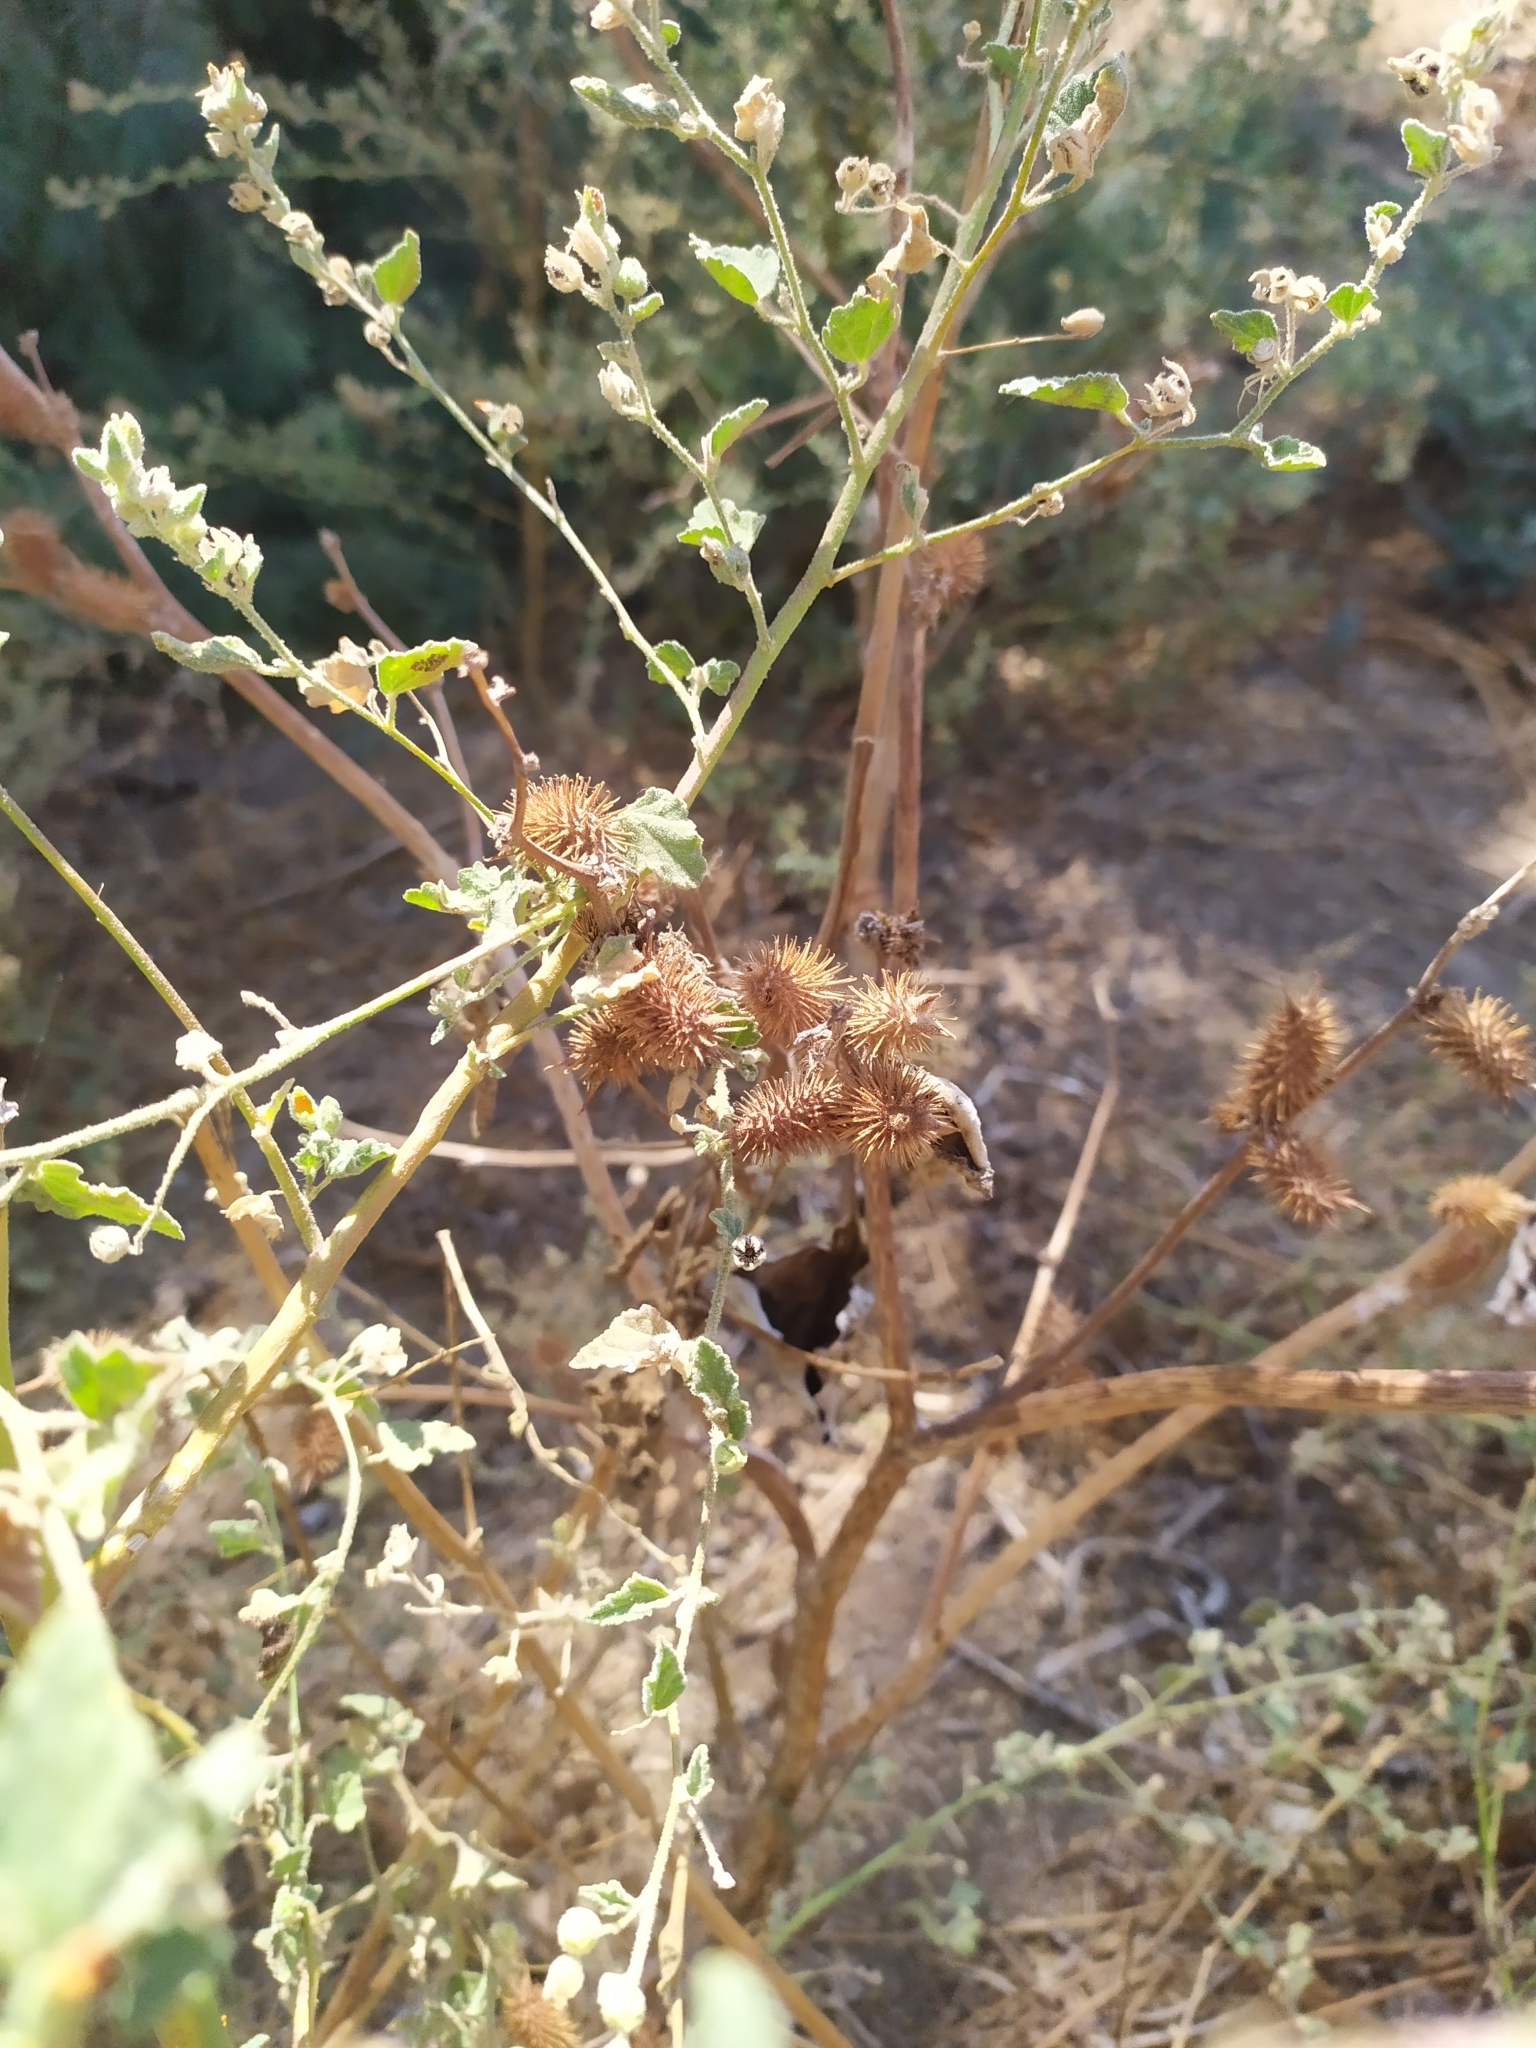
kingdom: Plantae
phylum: Tracheophyta
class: Magnoliopsida
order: Asterales
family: Asteraceae
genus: Xanthium
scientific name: Xanthium strumarium
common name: Rough cocklebur
